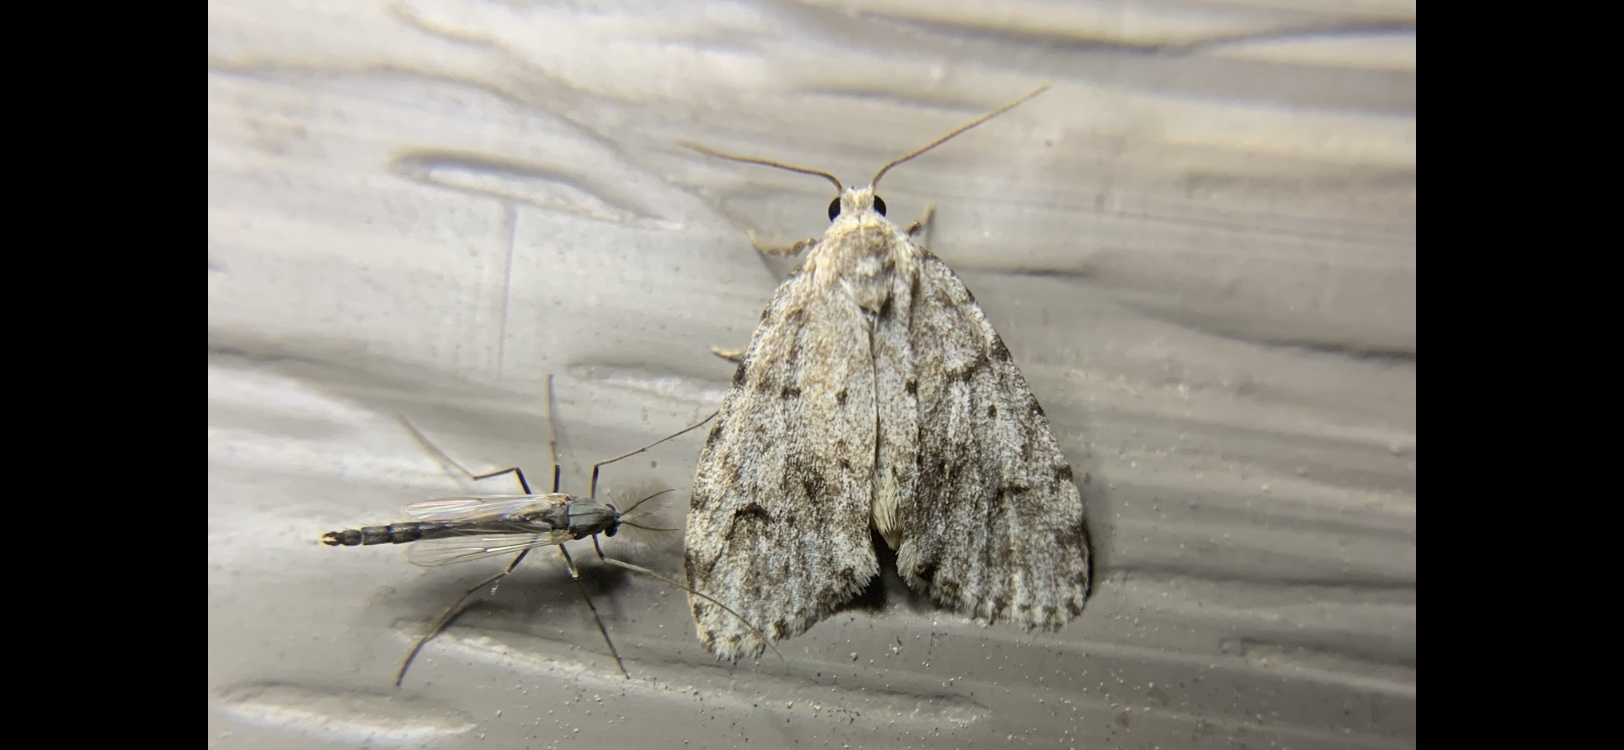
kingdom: Animalia
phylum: Arthropoda
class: Insecta
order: Lepidoptera
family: Erebidae
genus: Clemensia
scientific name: Clemensia albata
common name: Little white lichen moth
